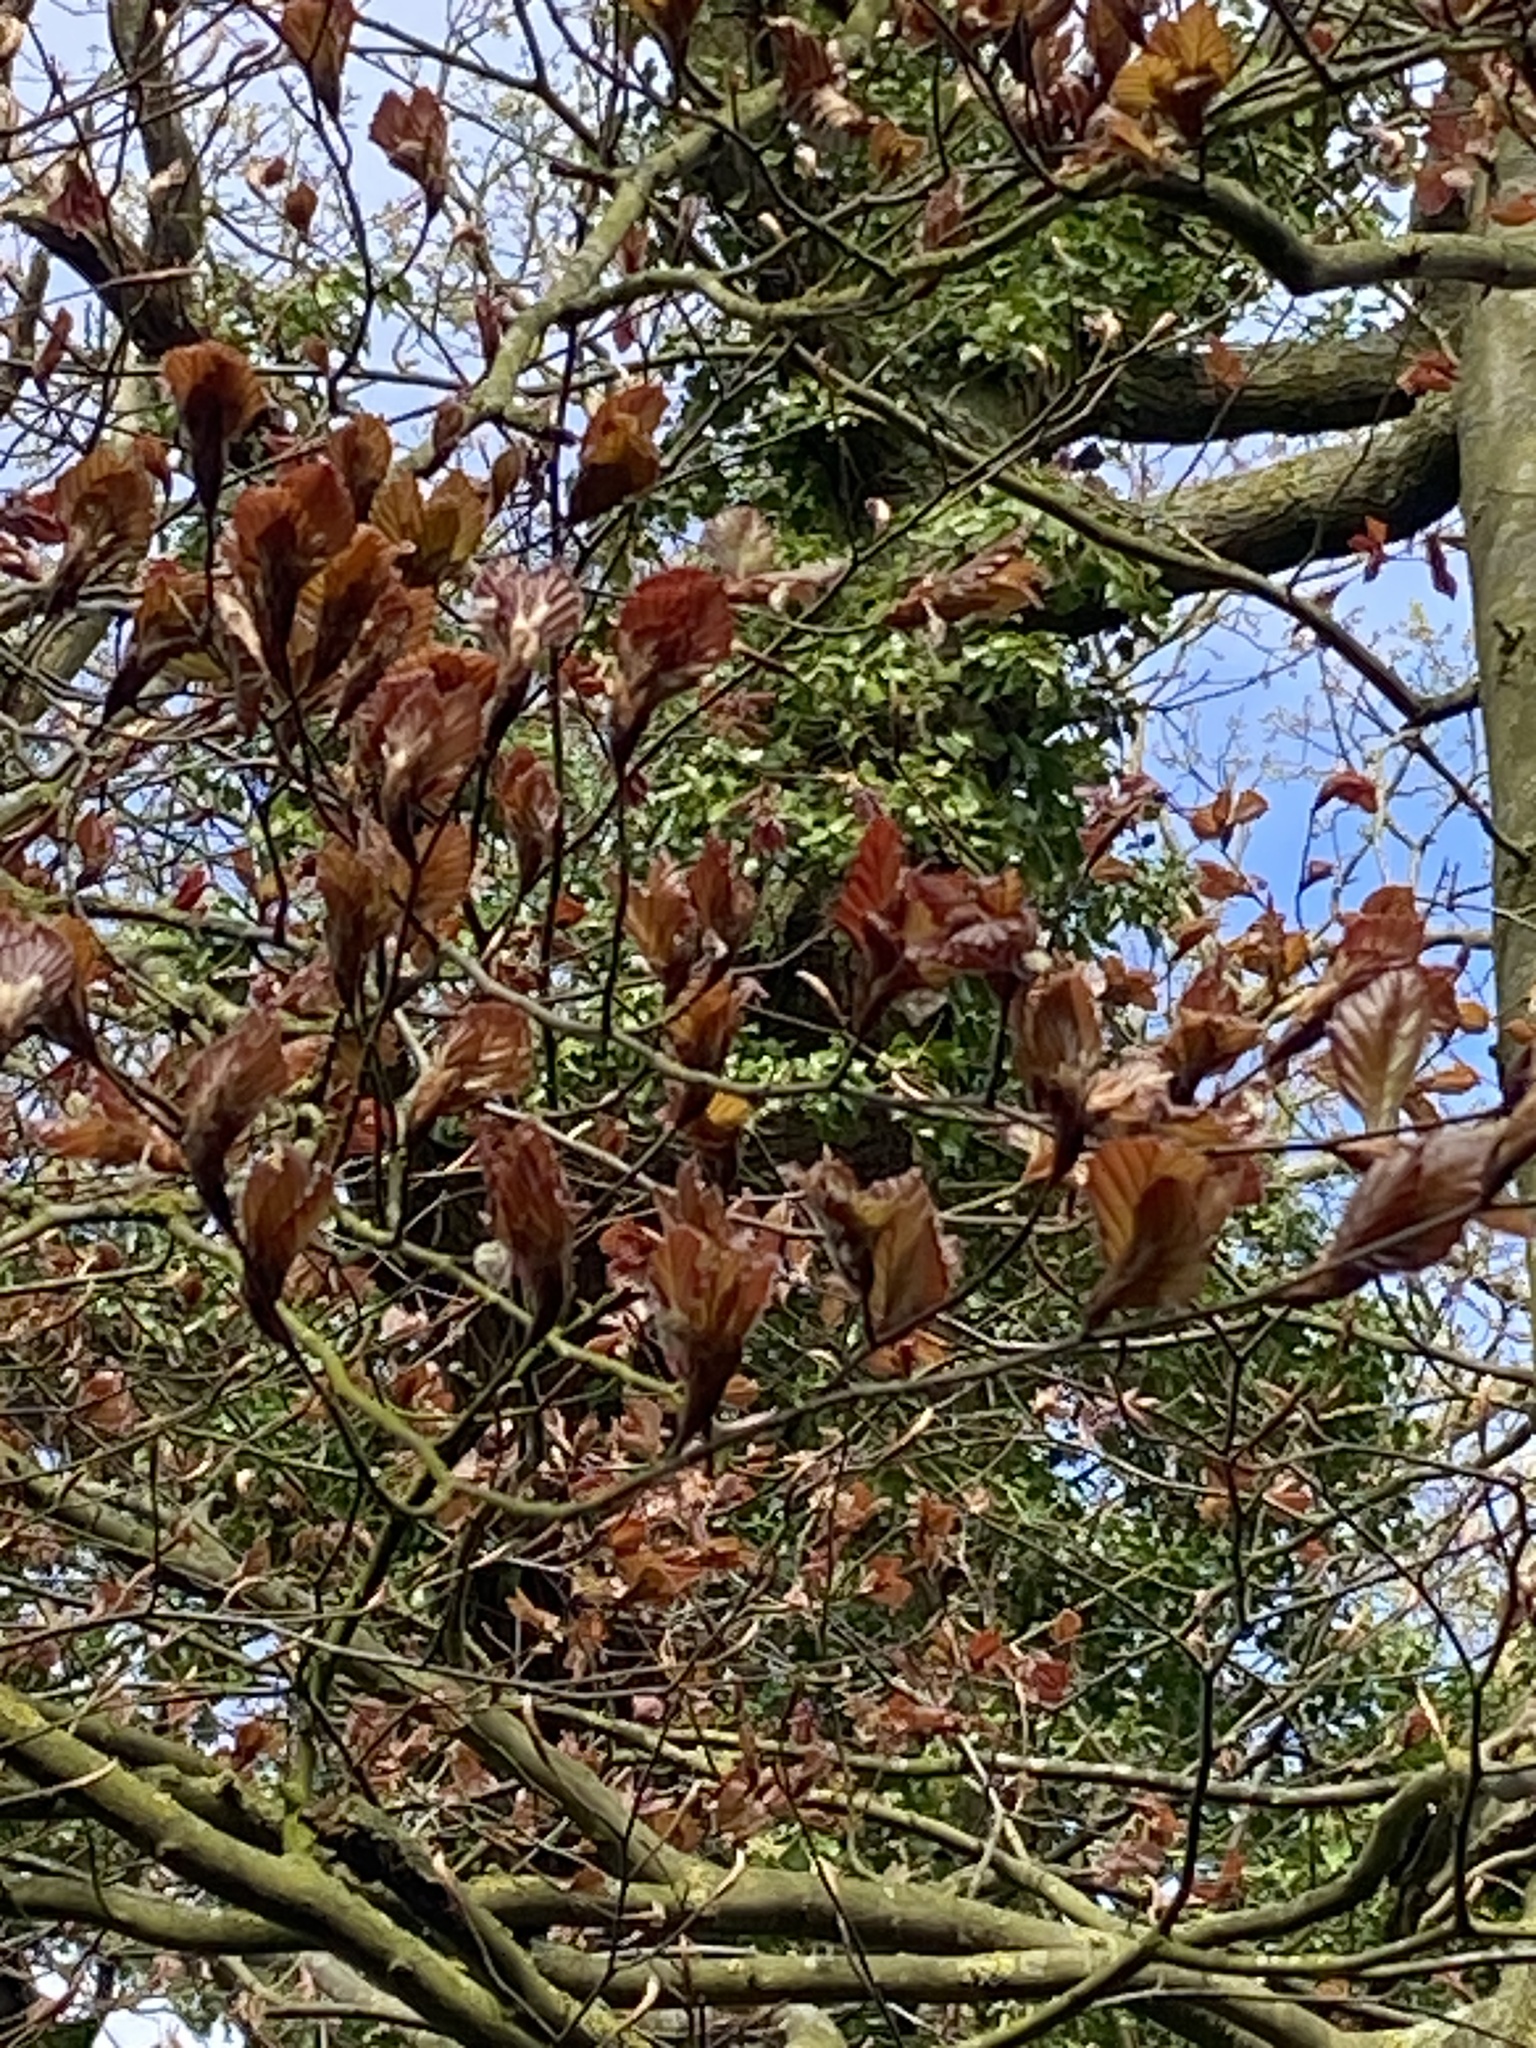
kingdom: Plantae
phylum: Tracheophyta
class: Magnoliopsida
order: Fagales
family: Fagaceae
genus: Fagus
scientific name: Fagus sylvatica
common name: Beech
